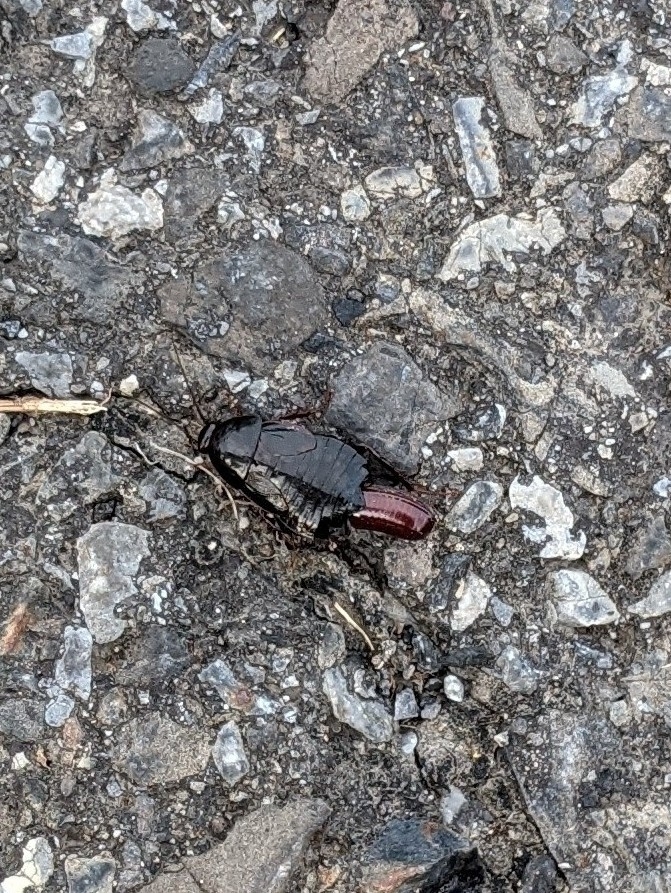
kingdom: Animalia
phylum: Arthropoda
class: Insecta
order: Blattodea
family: Ectobiidae
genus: Parcoblatta
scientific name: Parcoblatta uhleriana
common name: Uhler's wood cockroach
